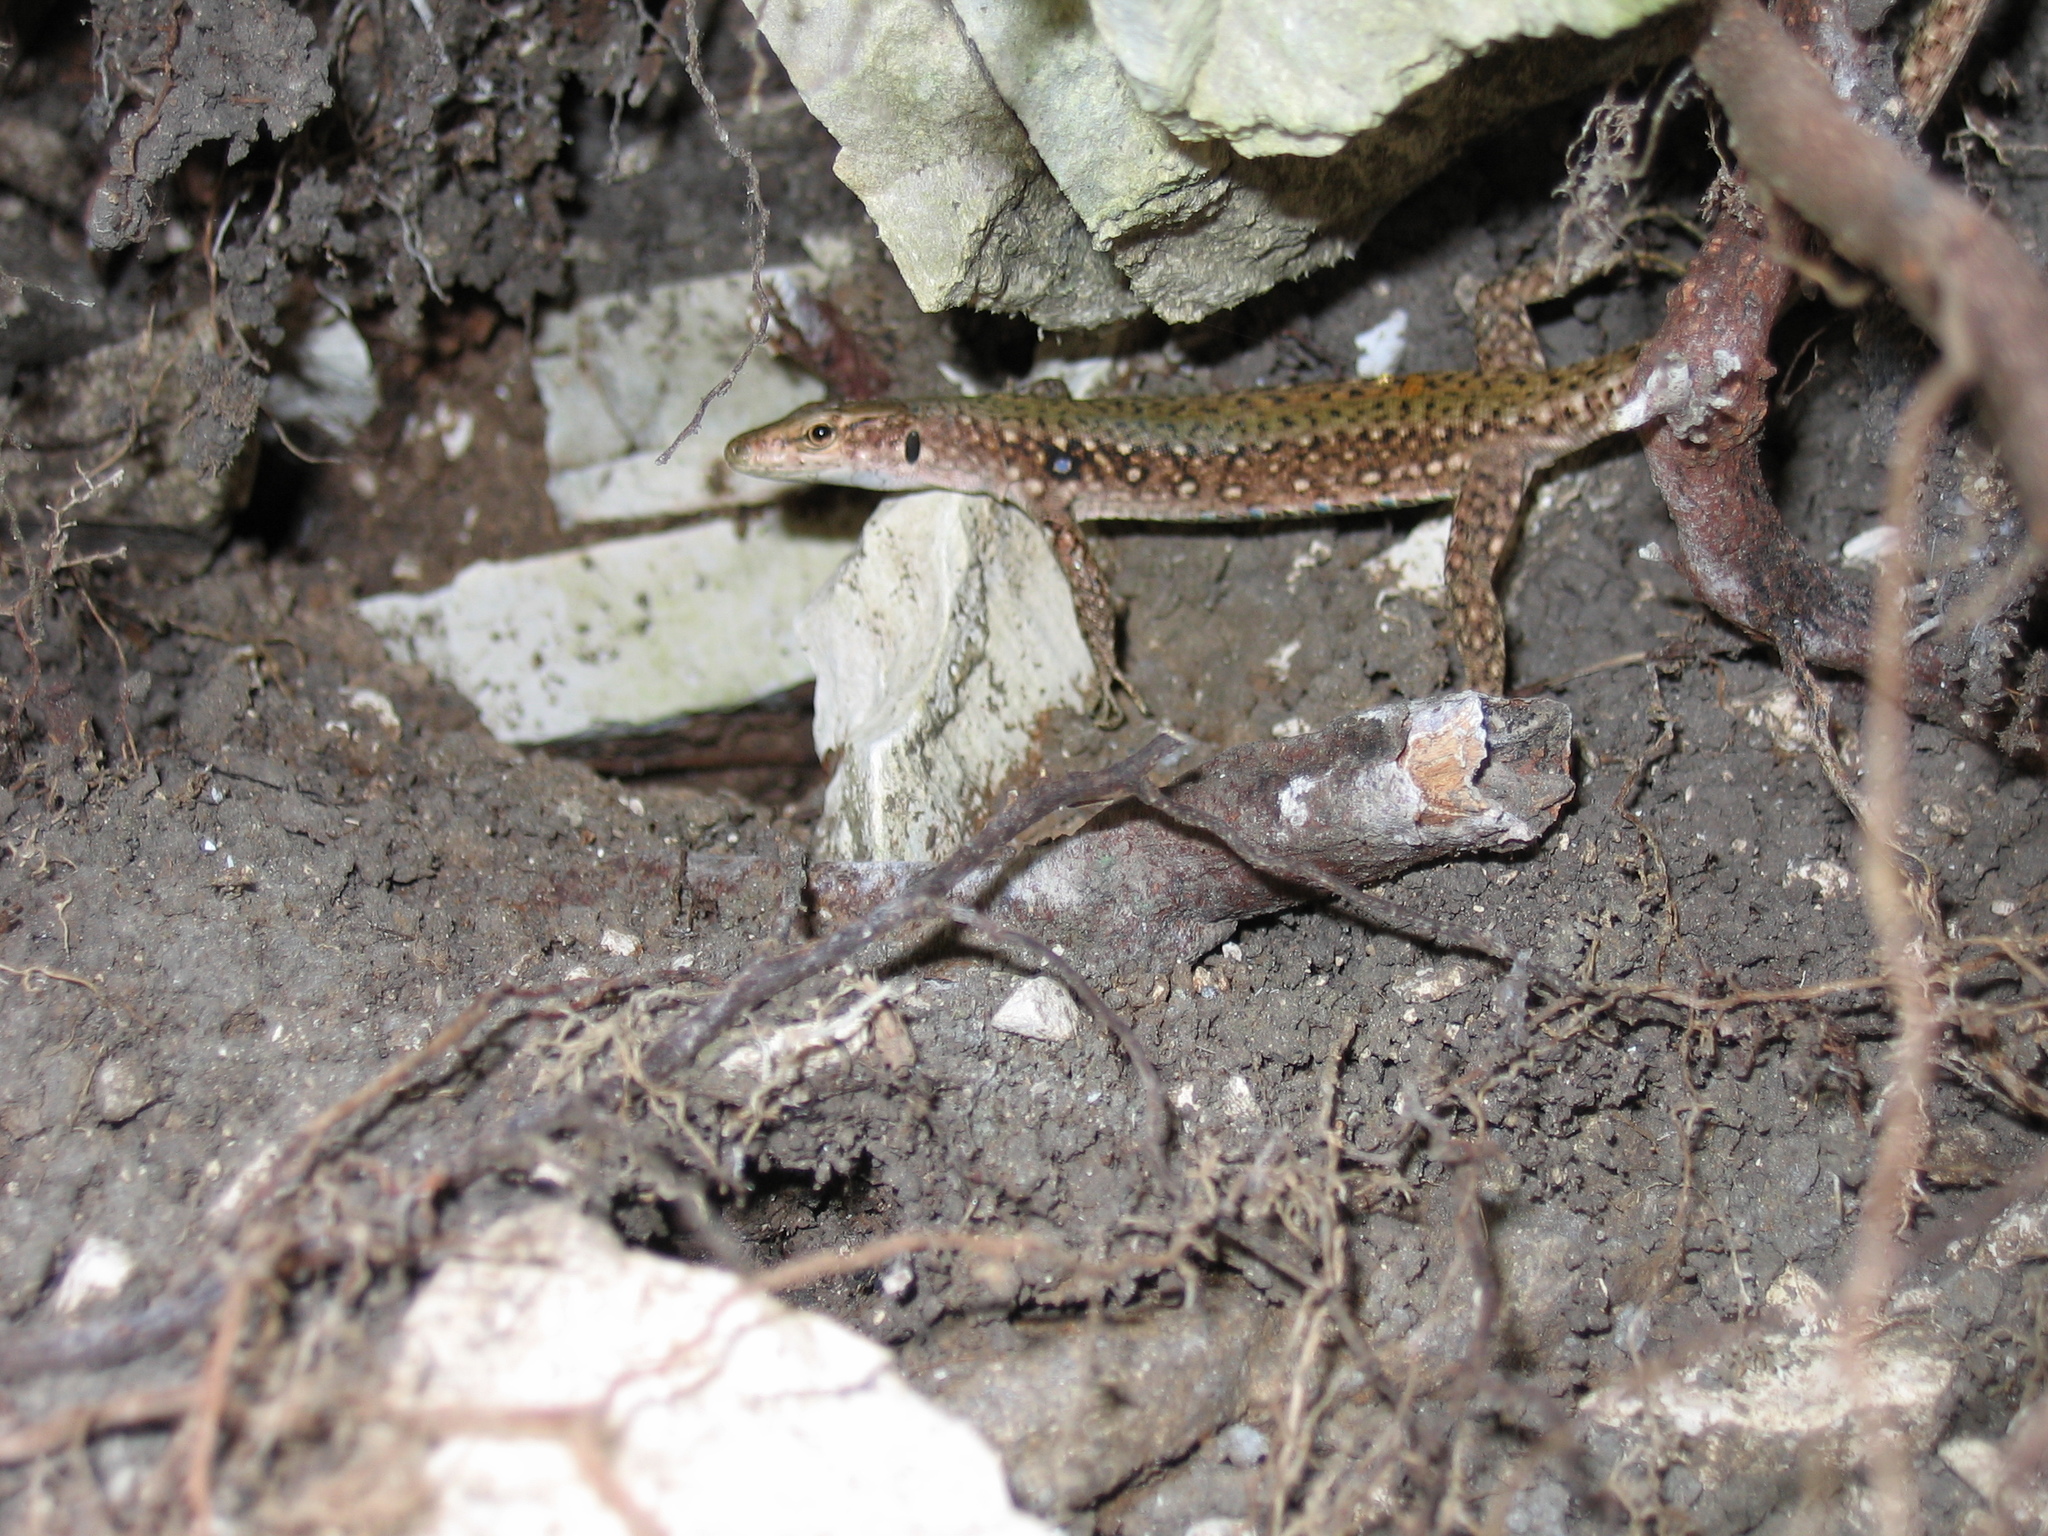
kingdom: Animalia
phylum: Chordata
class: Squamata
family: Lacertidae
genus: Darevskia
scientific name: Darevskia brauneri
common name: Brauner's rock lizard
